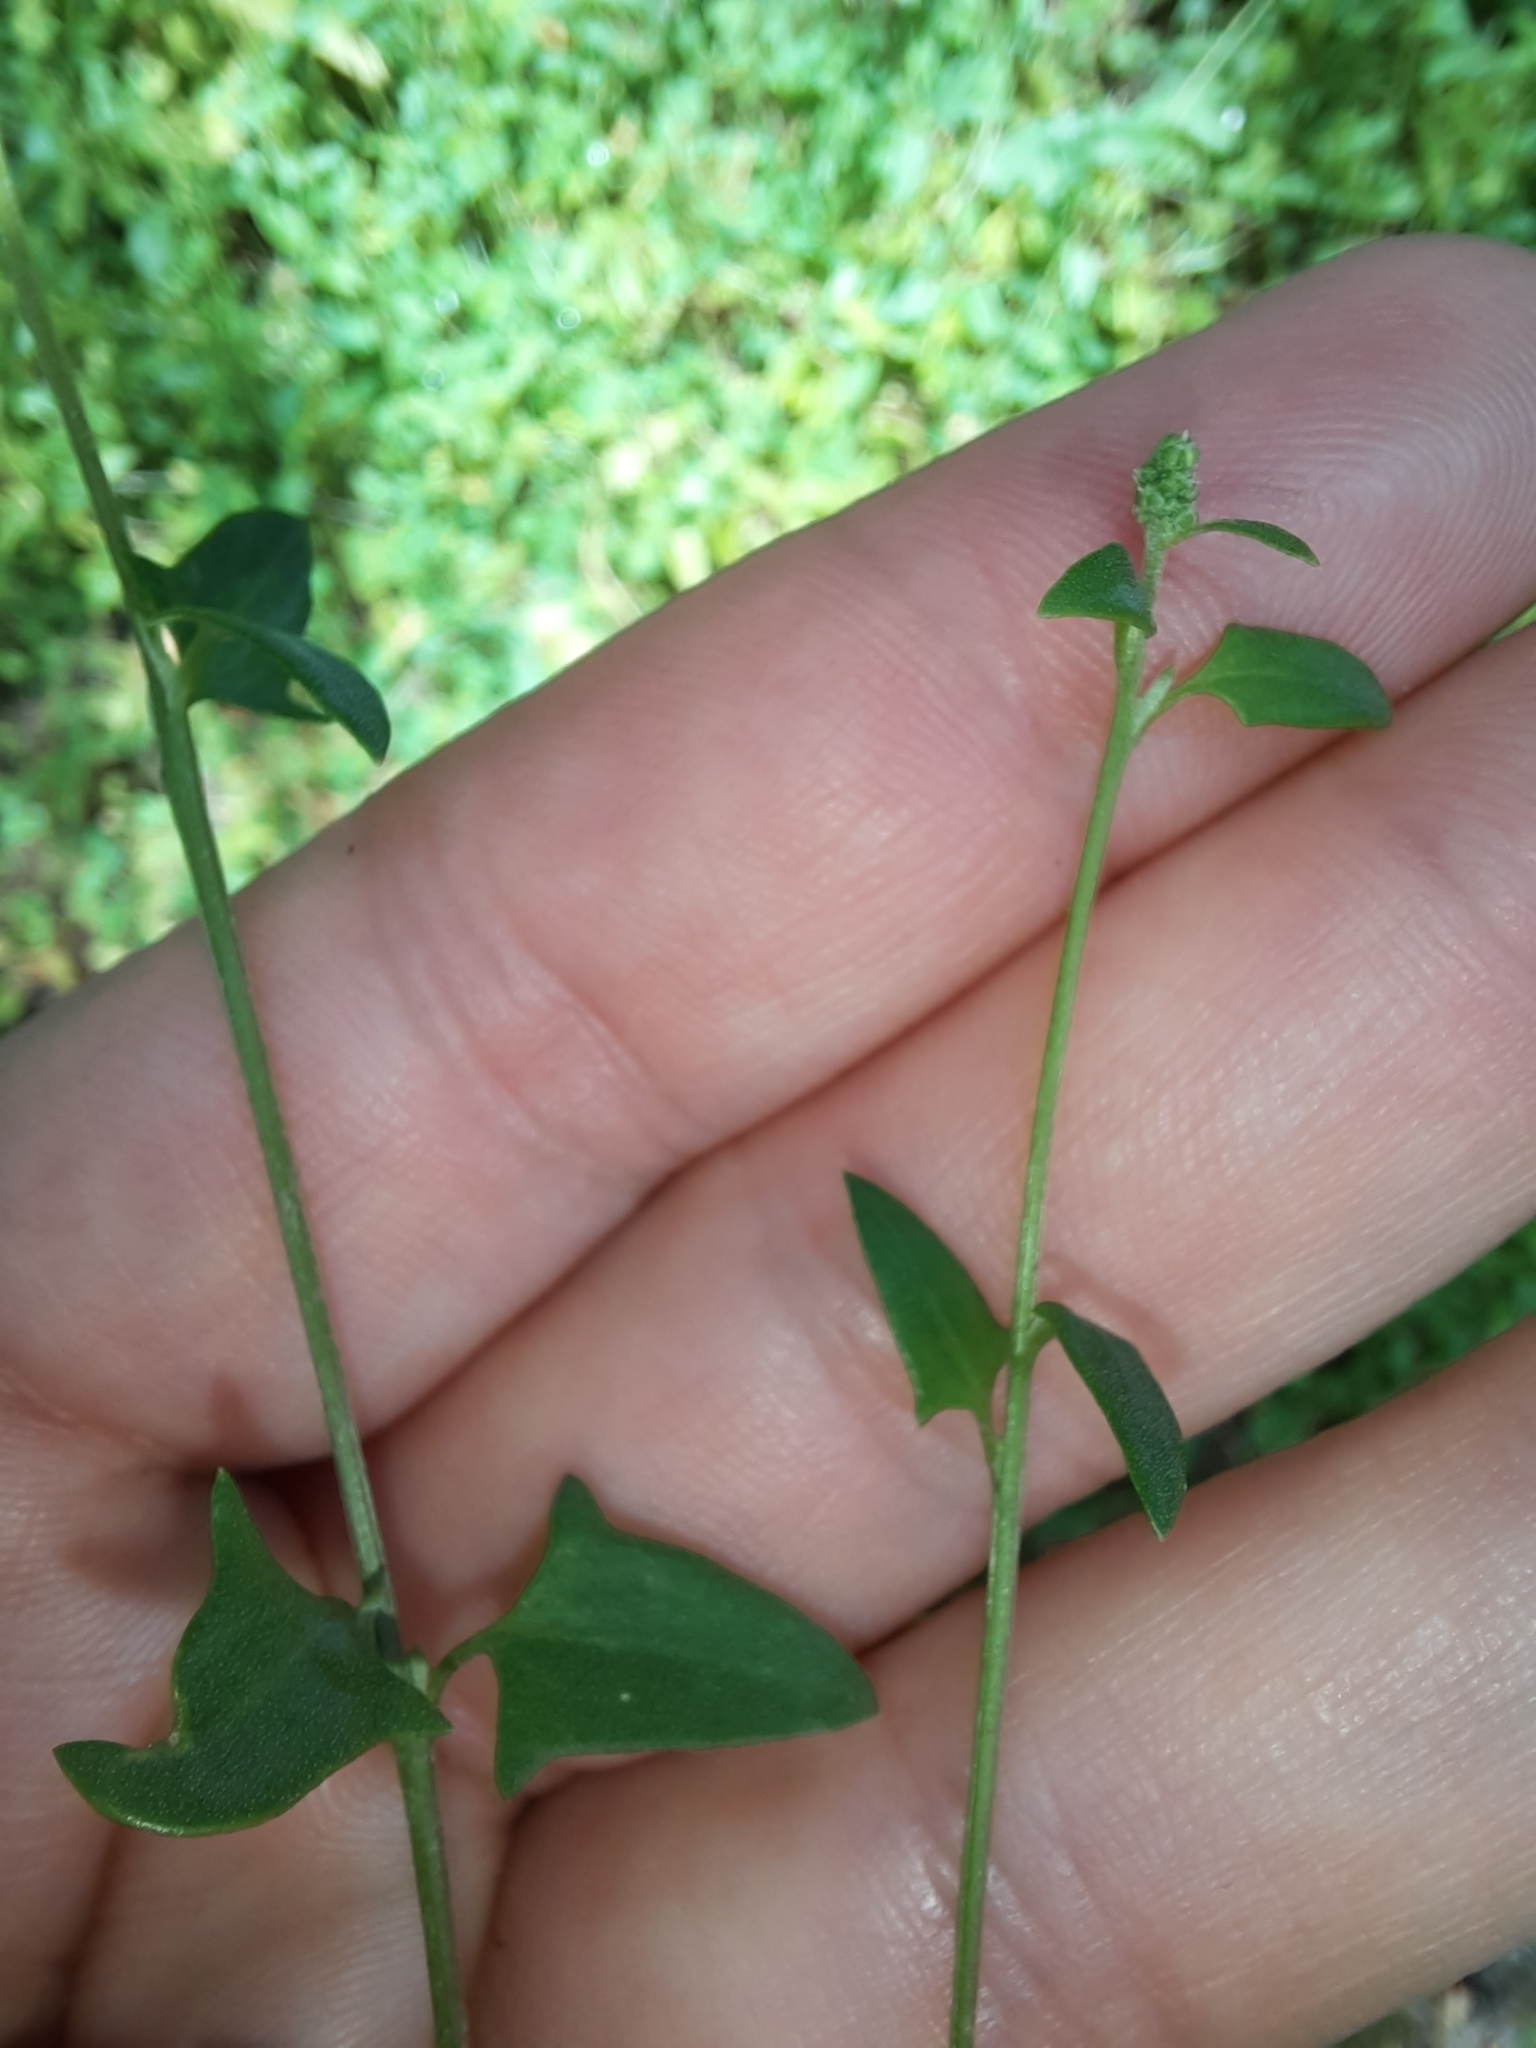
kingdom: Plantae
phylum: Tracheophyta
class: Magnoliopsida
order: Caryophyllales
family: Amaranthaceae
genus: Atriplex
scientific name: Atriplex prostrata
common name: Spear-leaved orache
